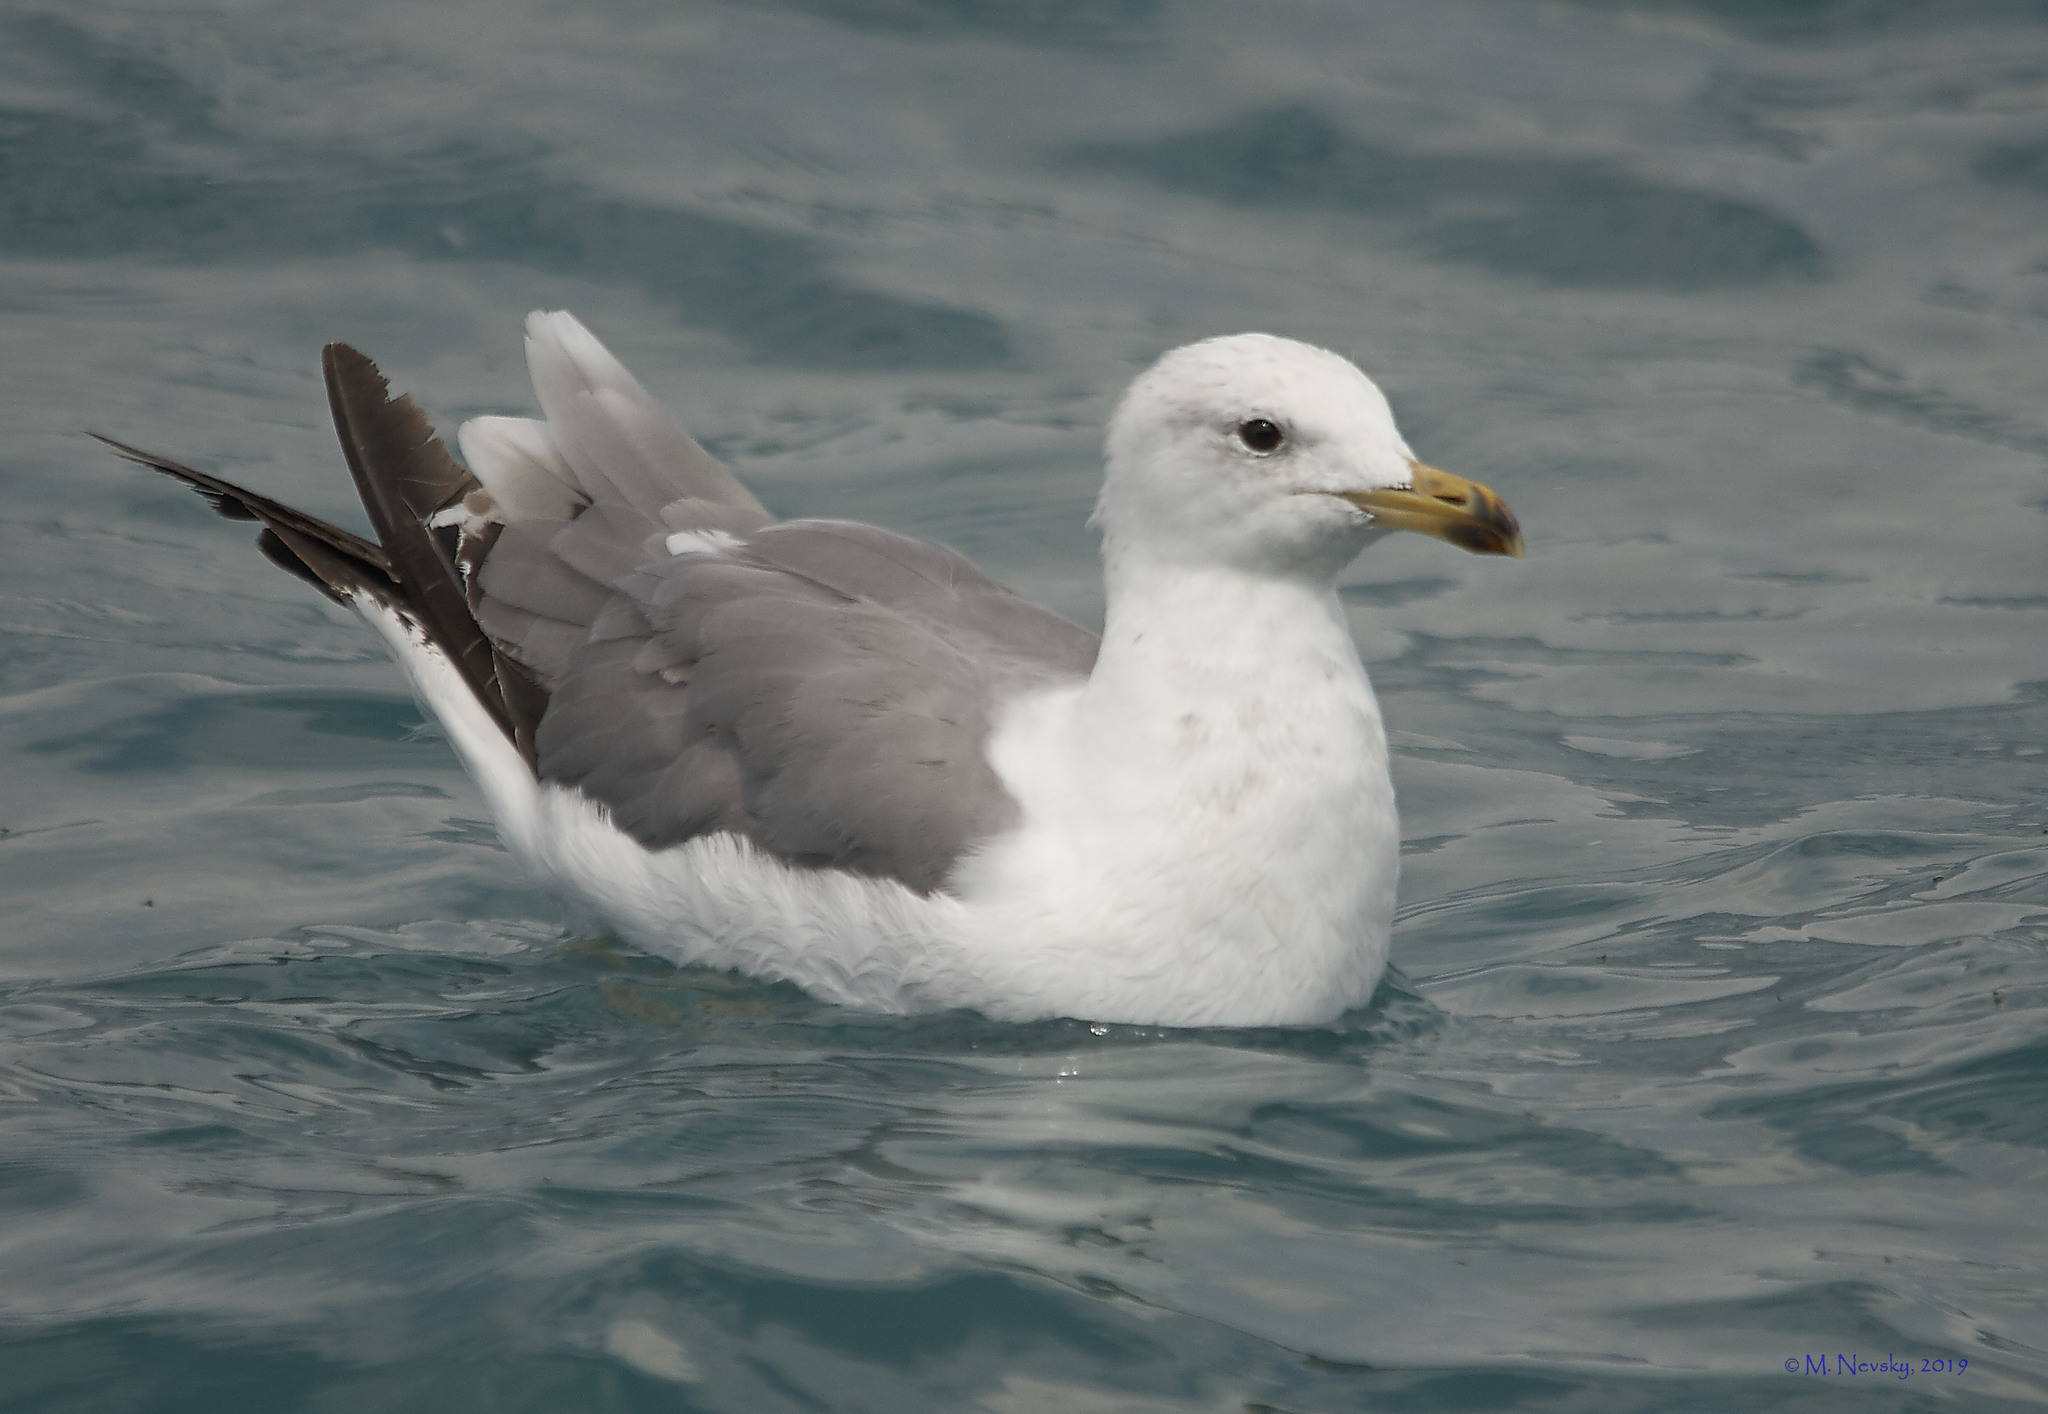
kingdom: Animalia
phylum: Chordata
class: Aves
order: Charadriiformes
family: Laridae
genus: Larus
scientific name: Larus armenicus
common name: Armenian gull
